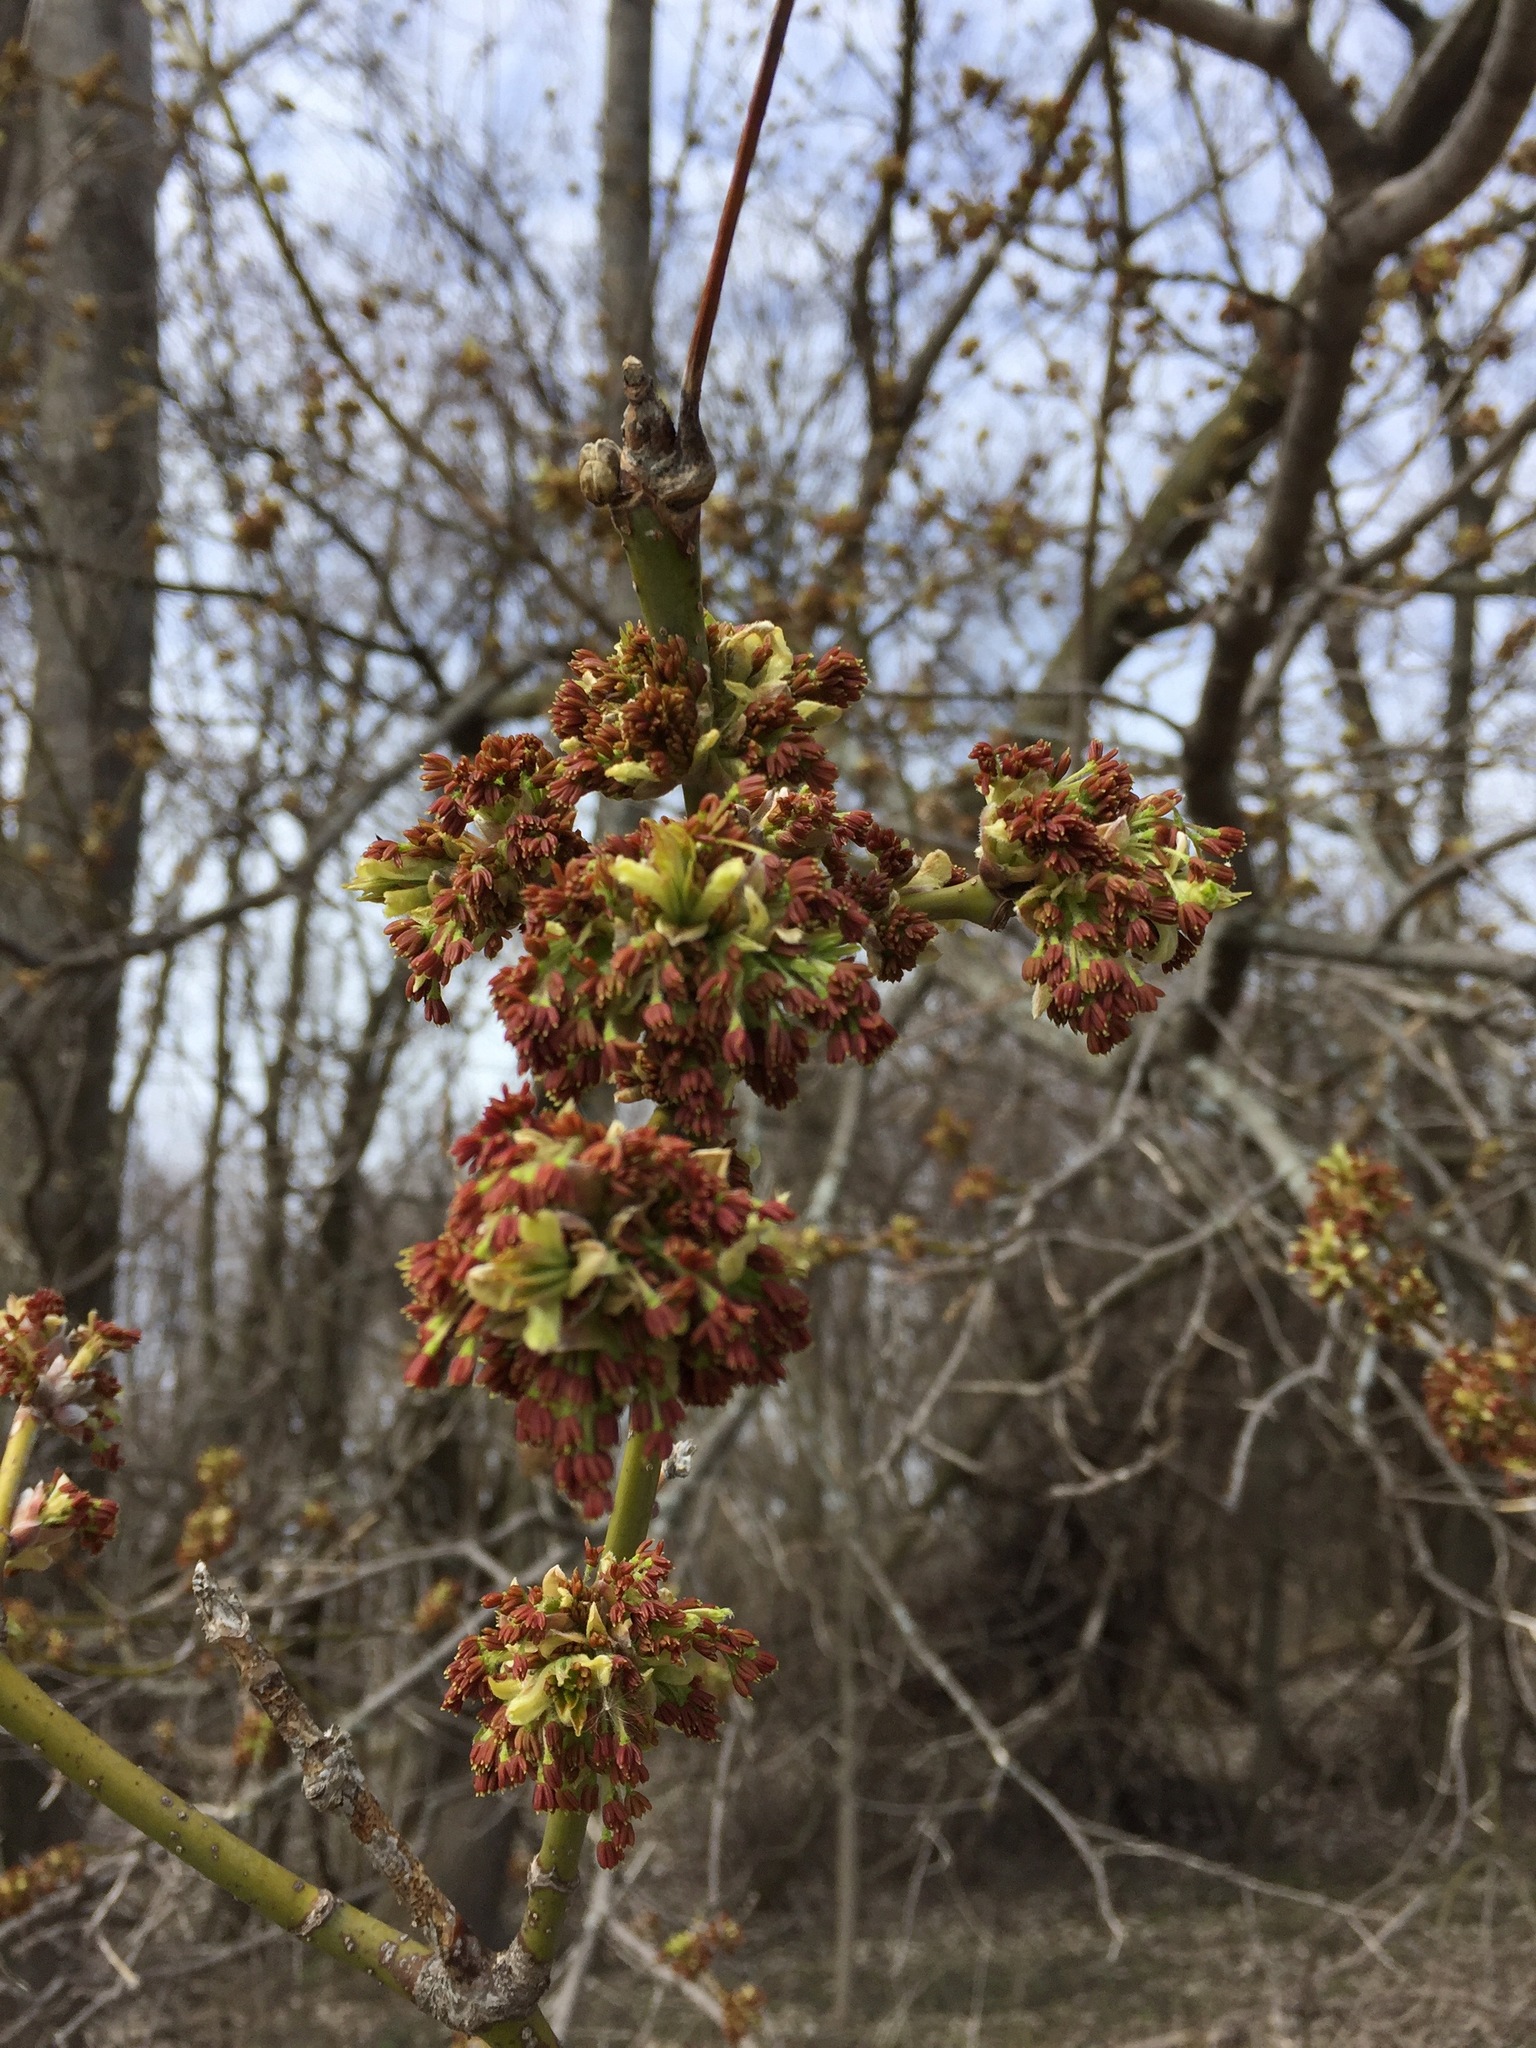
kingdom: Plantae
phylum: Tracheophyta
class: Magnoliopsida
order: Sapindales
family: Sapindaceae
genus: Acer
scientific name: Acer negundo
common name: Ashleaf maple
